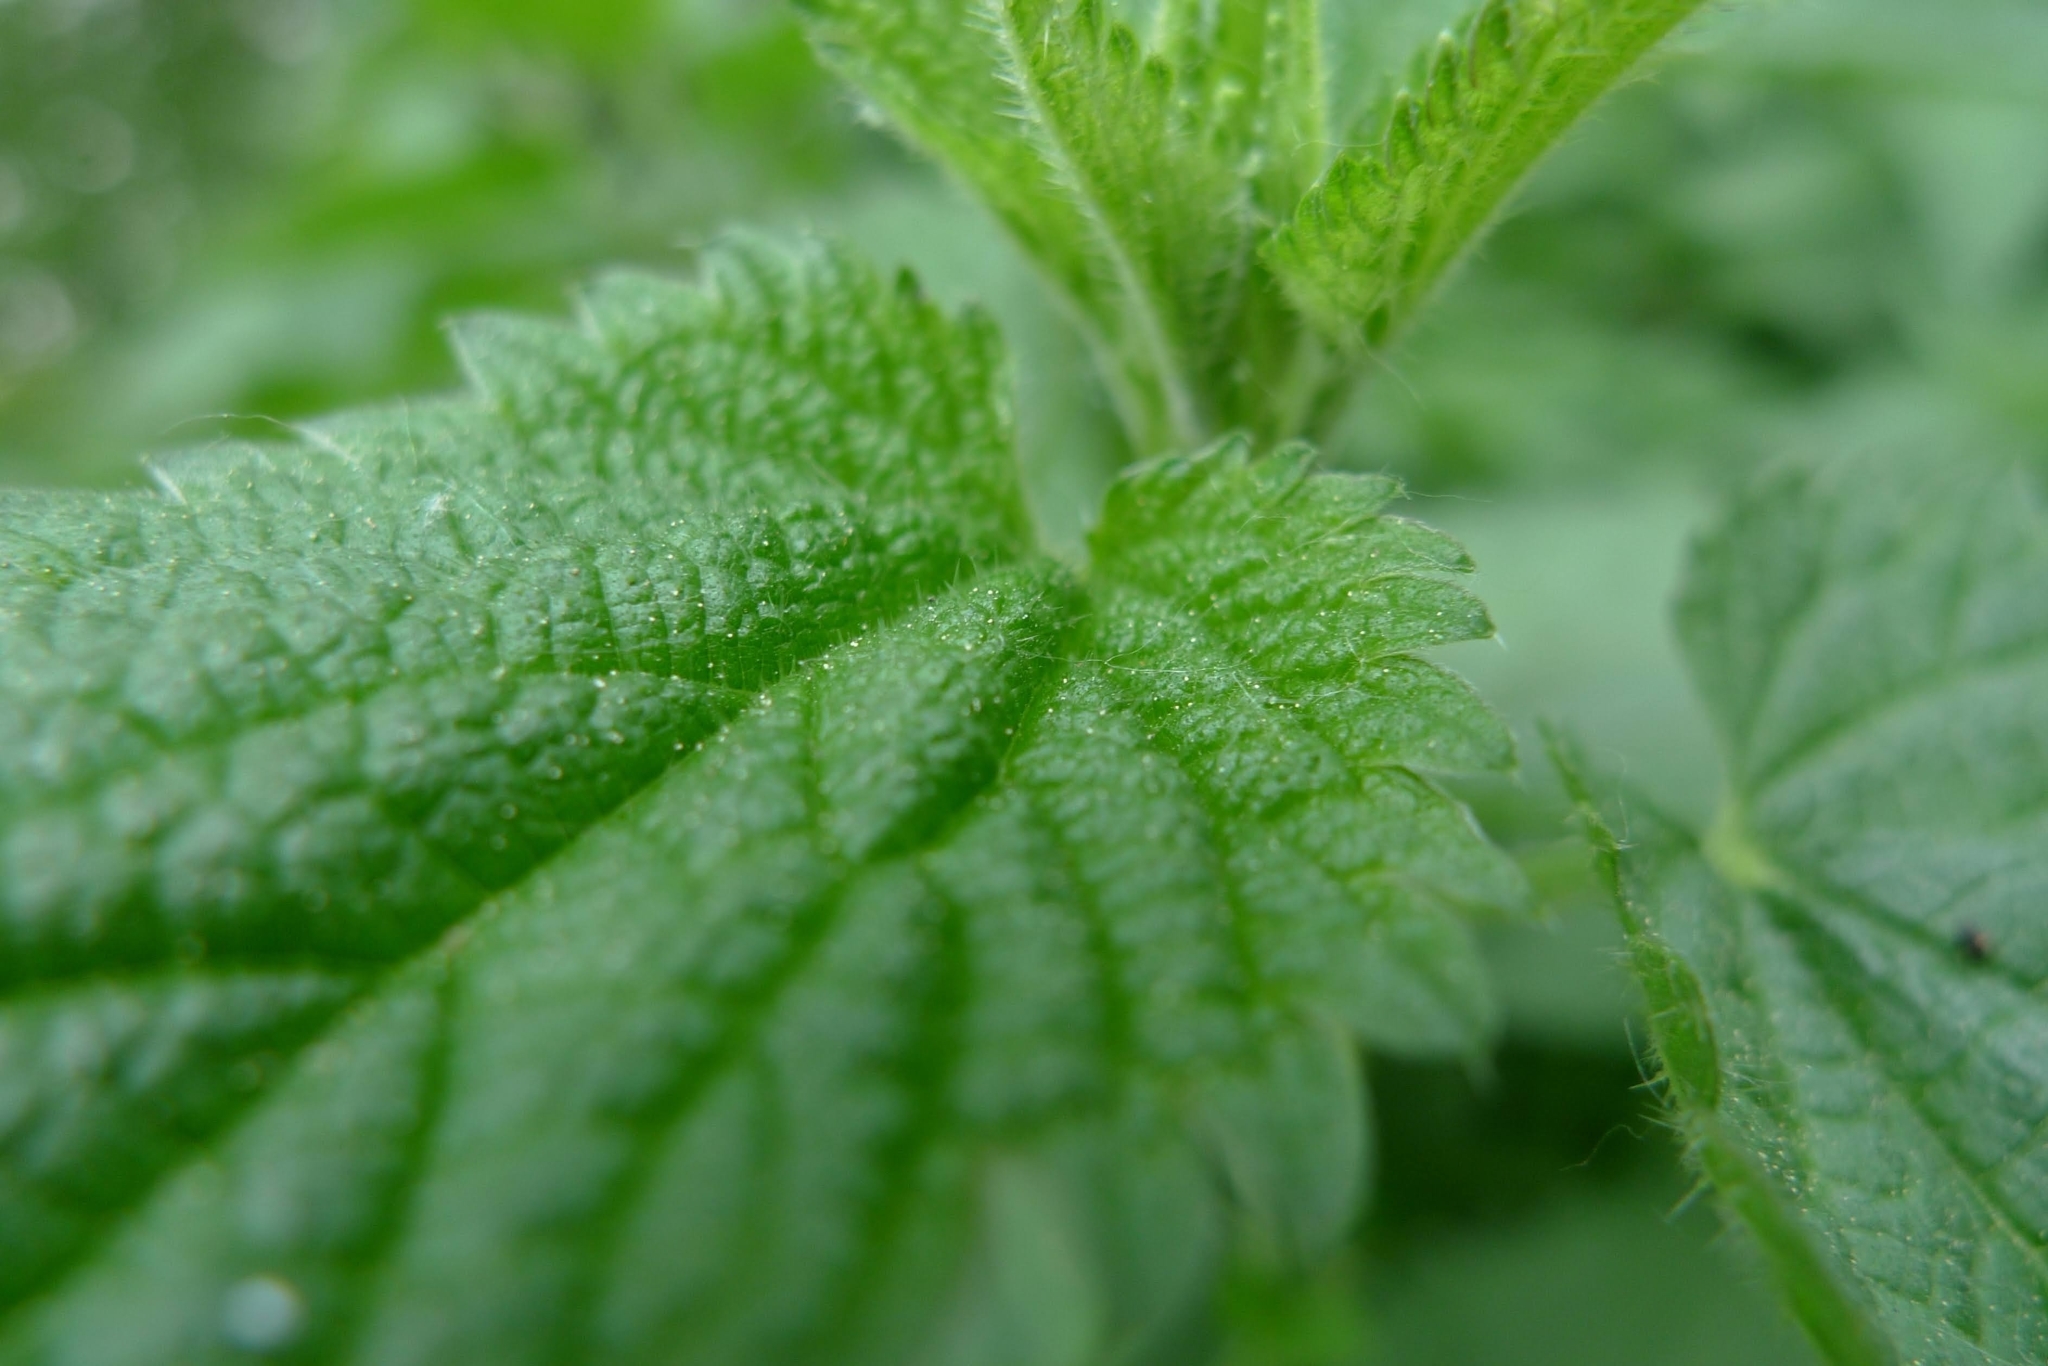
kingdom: Plantae
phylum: Tracheophyta
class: Magnoliopsida
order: Rosales
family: Urticaceae
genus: Urtica
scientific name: Urtica dioica
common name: Common nettle
